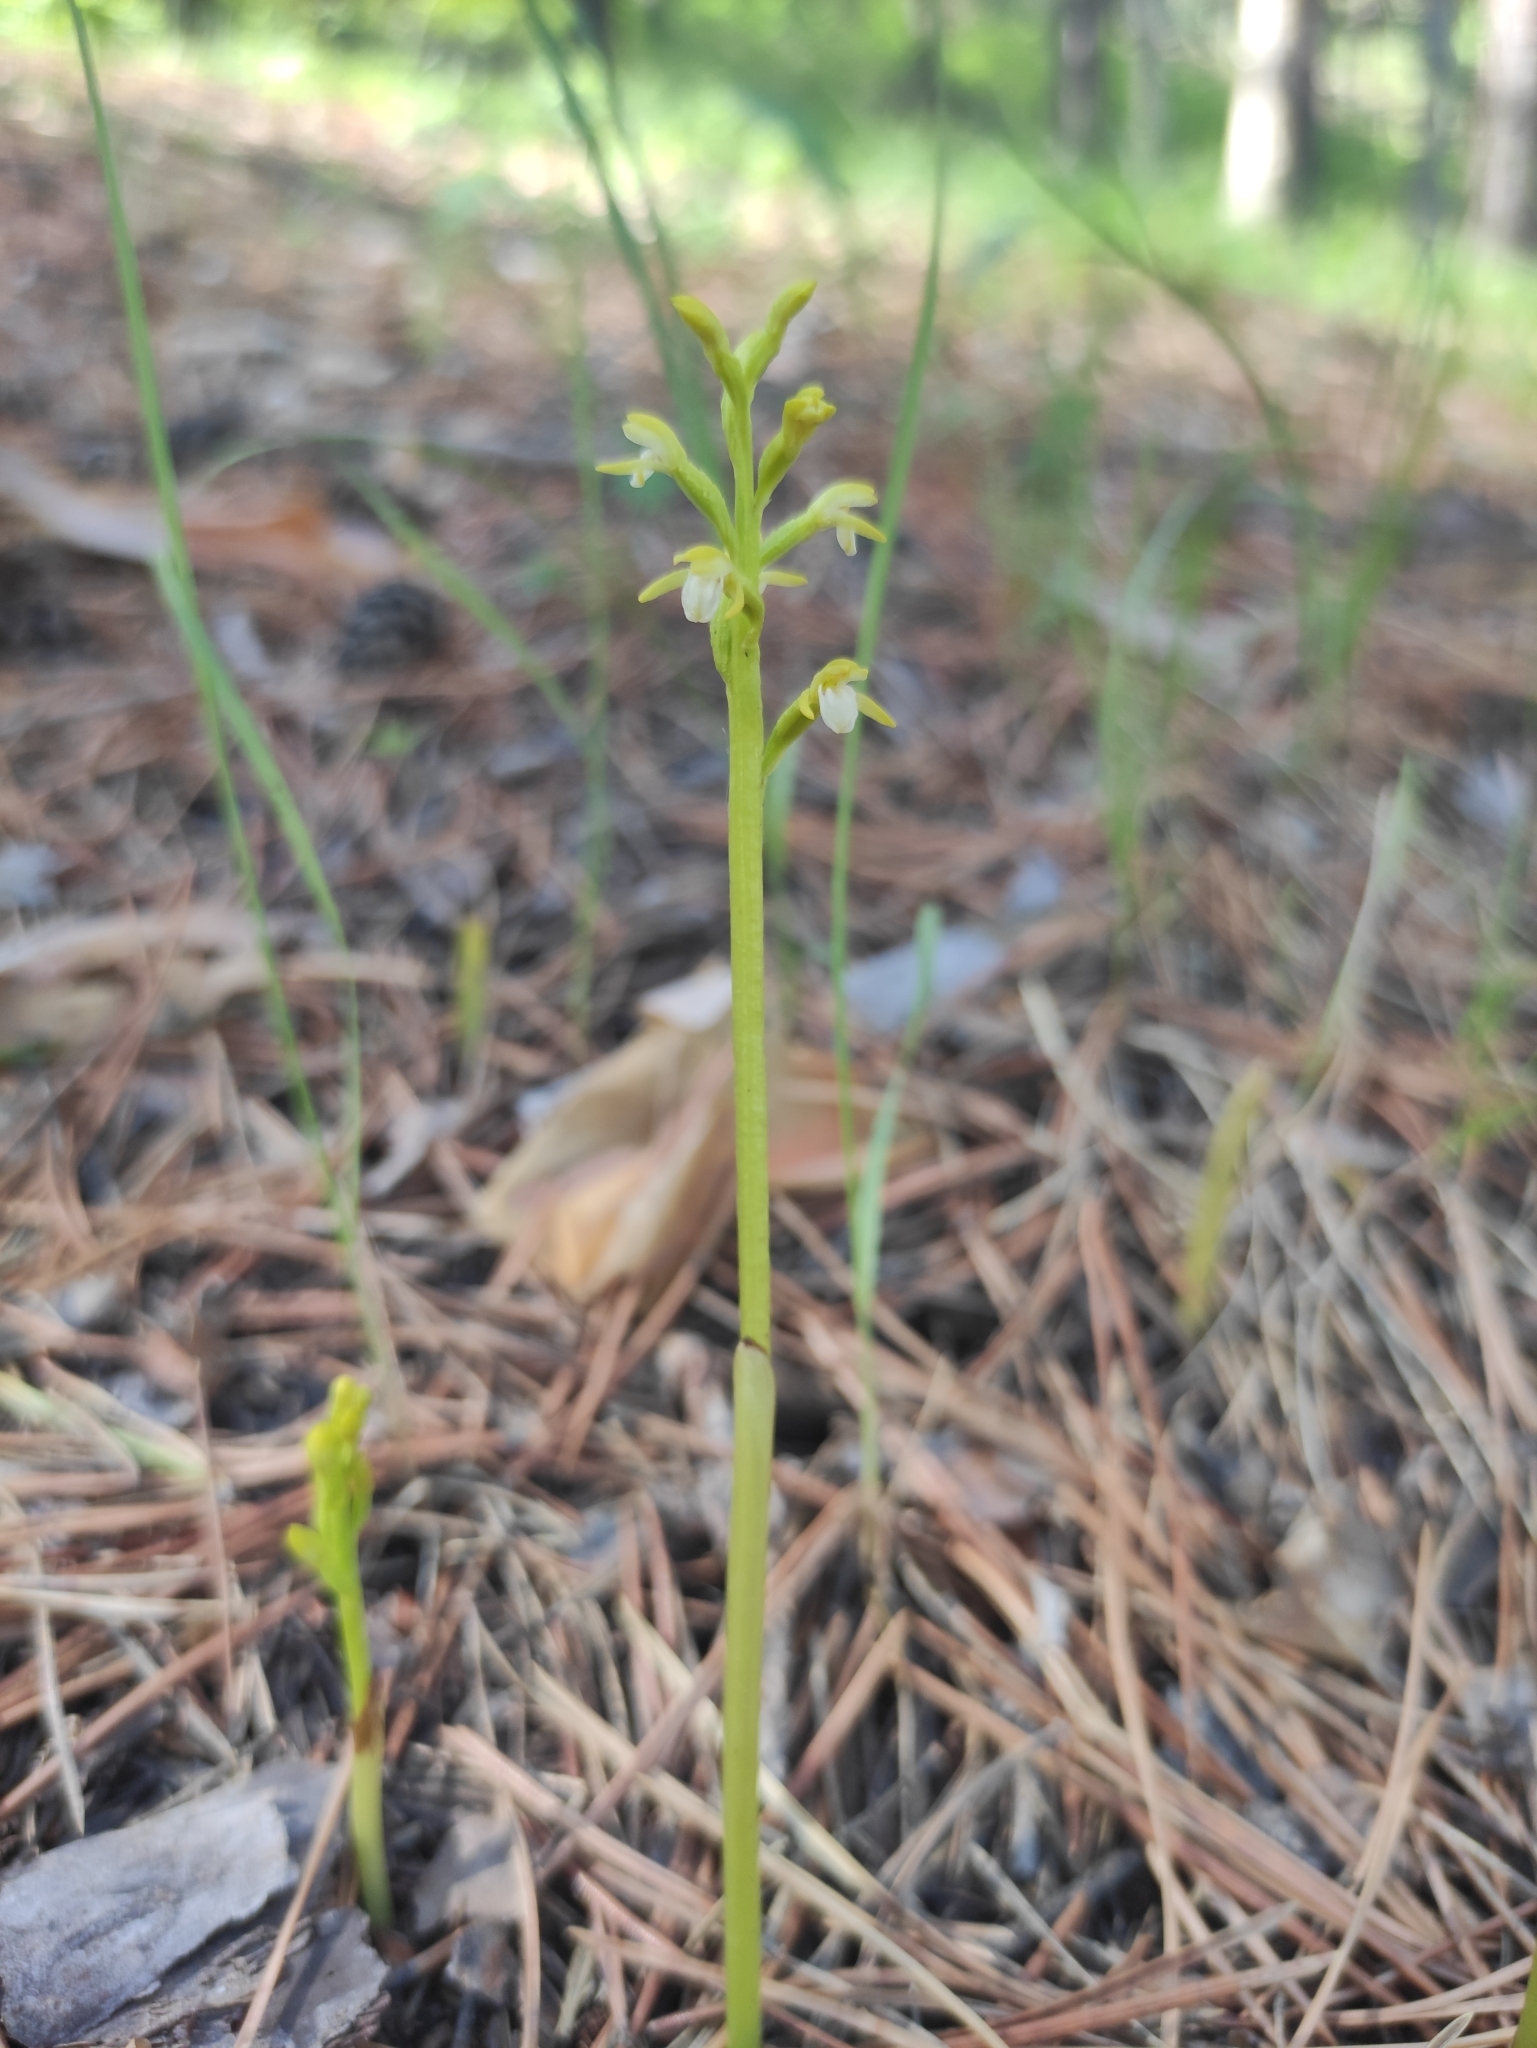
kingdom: Plantae
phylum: Tracheophyta
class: Liliopsida
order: Asparagales
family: Orchidaceae
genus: Corallorhiza
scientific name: Corallorhiza trifida
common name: Yellow coralroot
